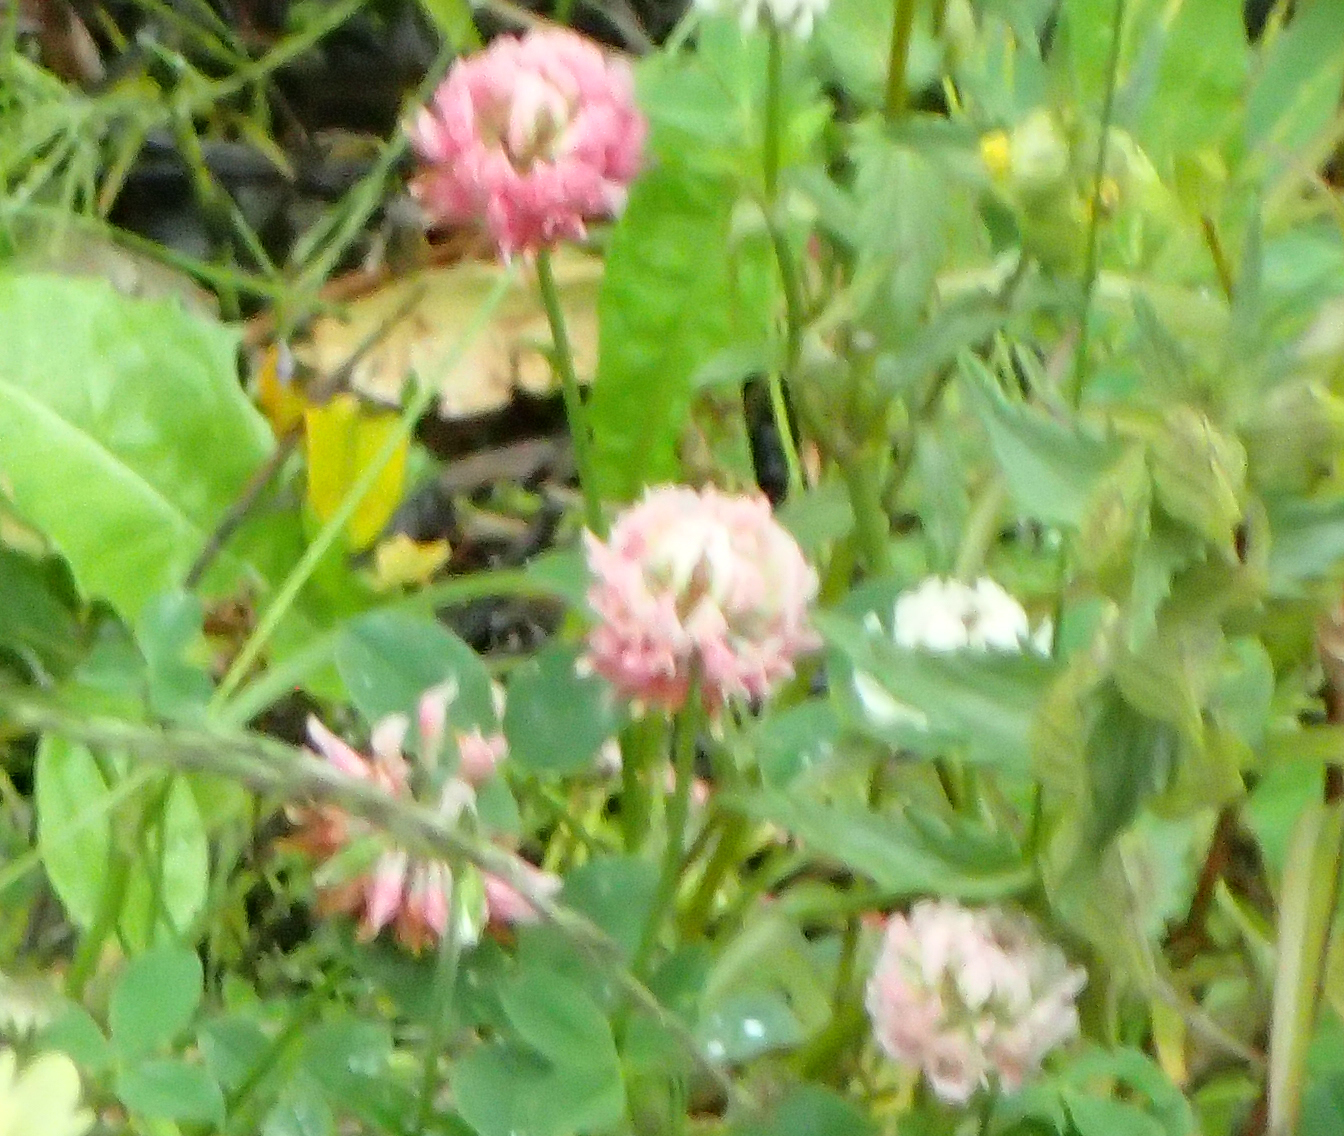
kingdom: Plantae
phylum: Tracheophyta
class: Magnoliopsida
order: Fabales
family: Fabaceae
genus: Trifolium
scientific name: Trifolium hybridum
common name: Alsike clover
